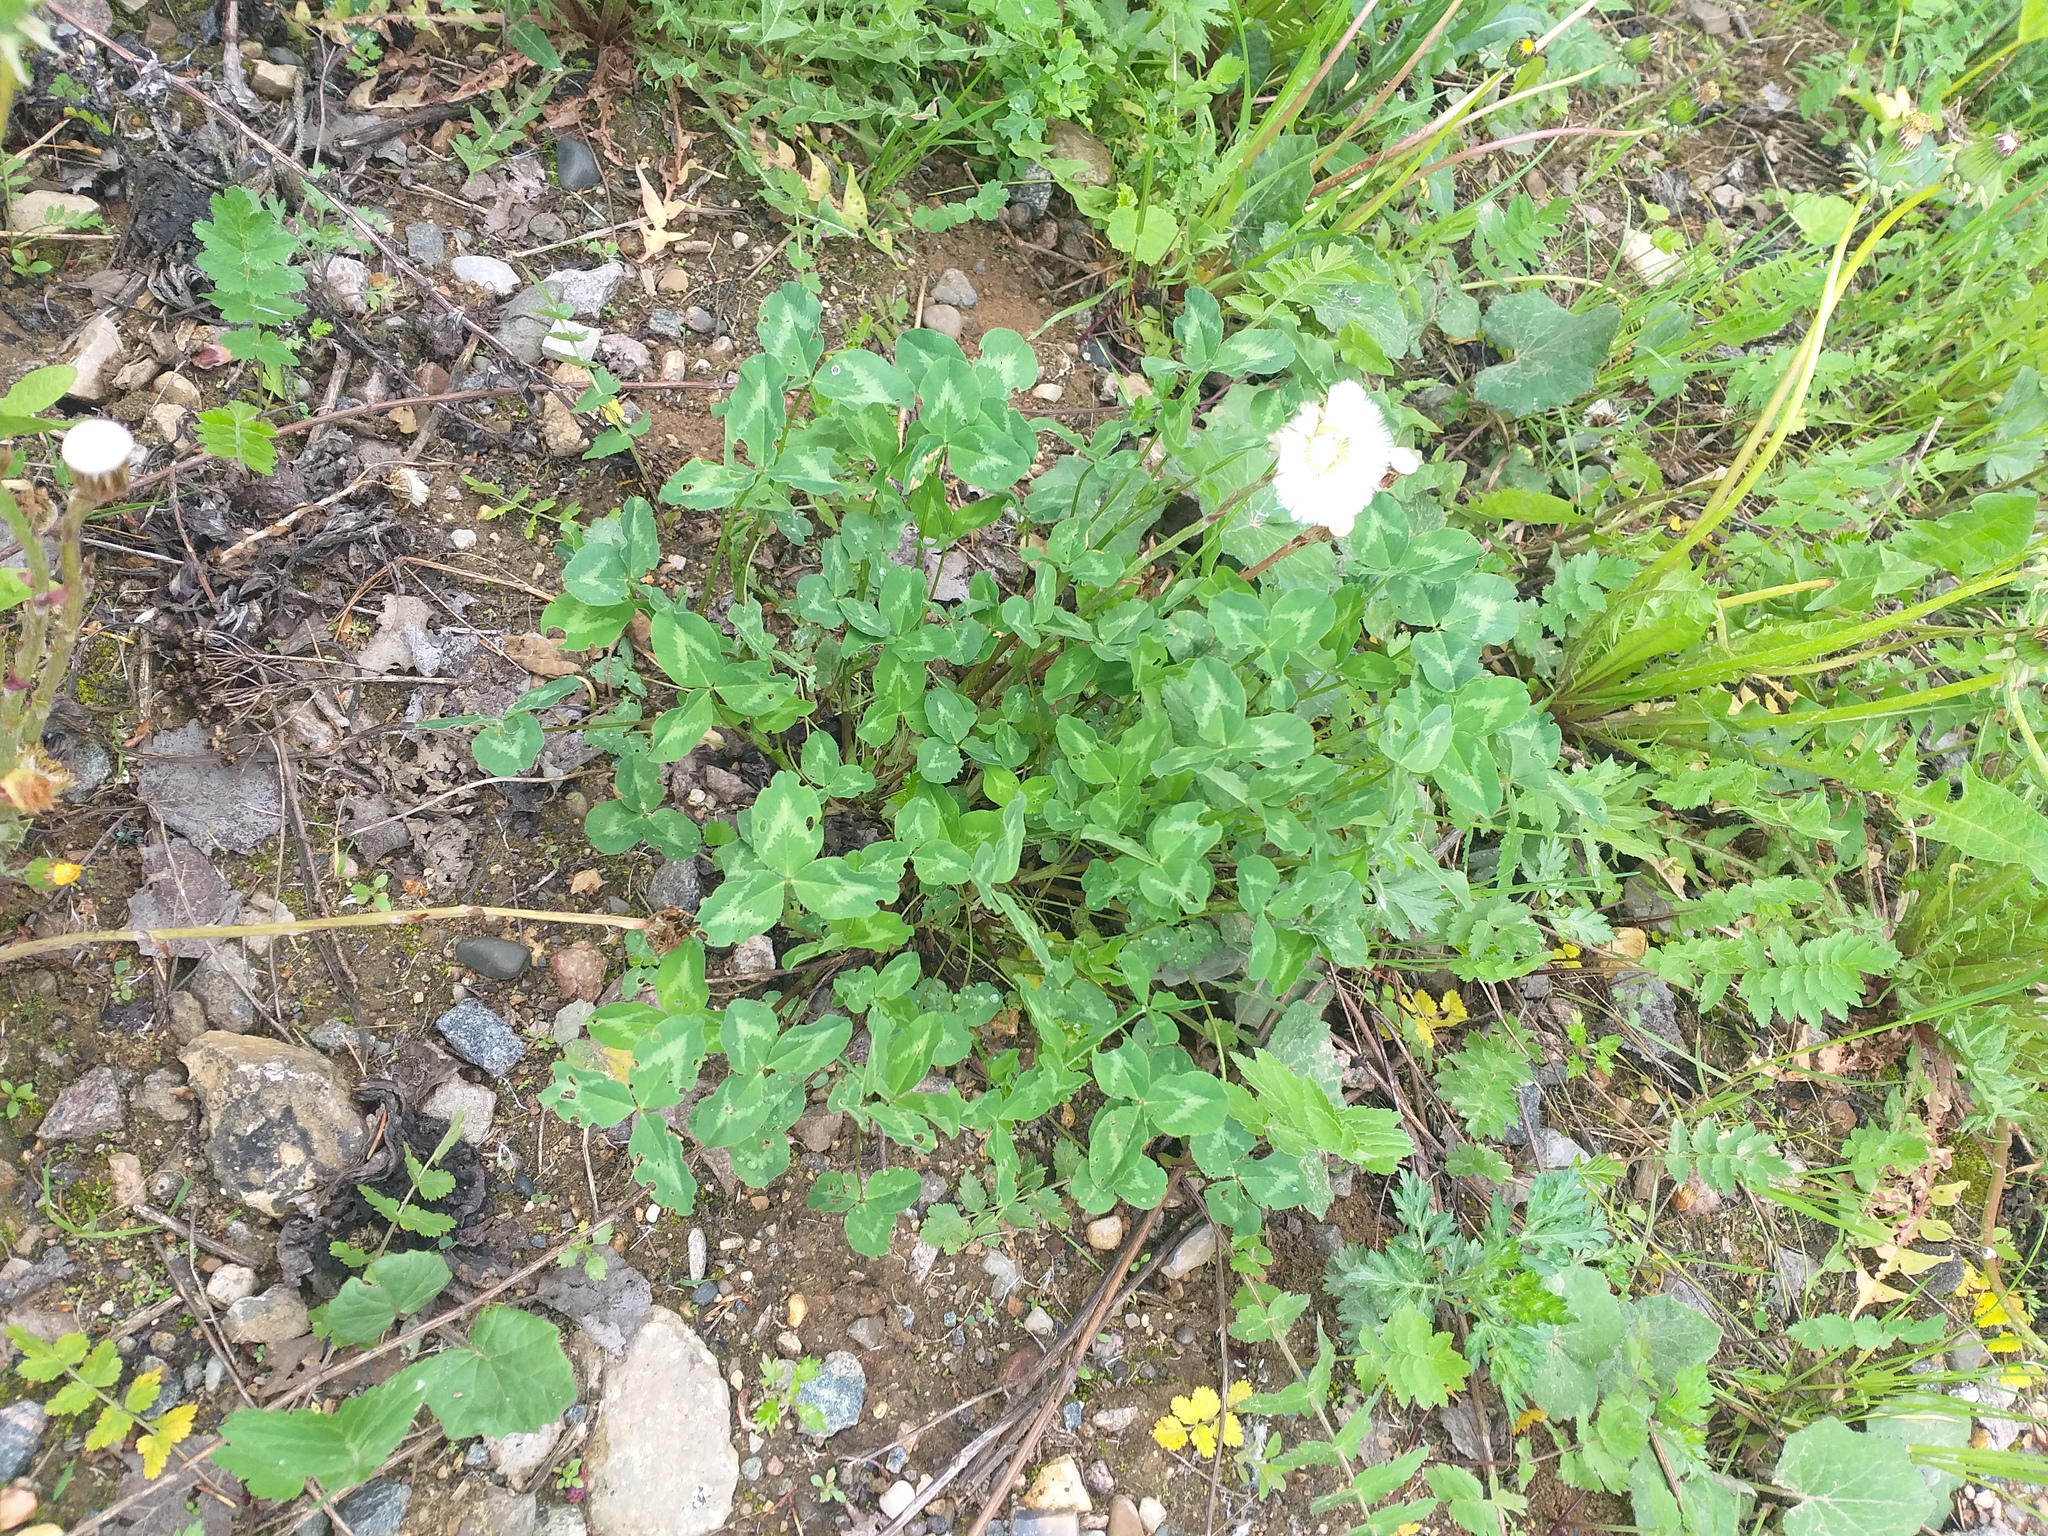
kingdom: Plantae
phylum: Tracheophyta
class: Magnoliopsida
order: Fabales
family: Fabaceae
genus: Trifolium
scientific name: Trifolium pratense
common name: Red clover
